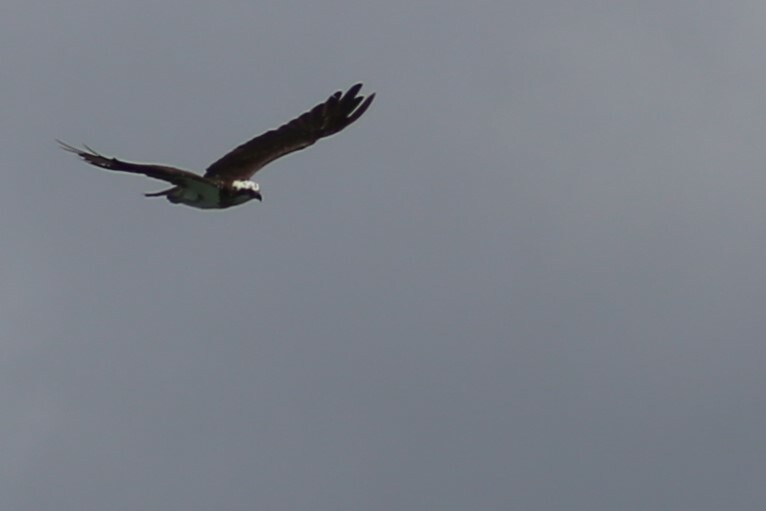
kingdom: Animalia
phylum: Chordata
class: Aves
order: Accipitriformes
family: Pandionidae
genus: Pandion
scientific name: Pandion cristatus
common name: Eastern osprey
